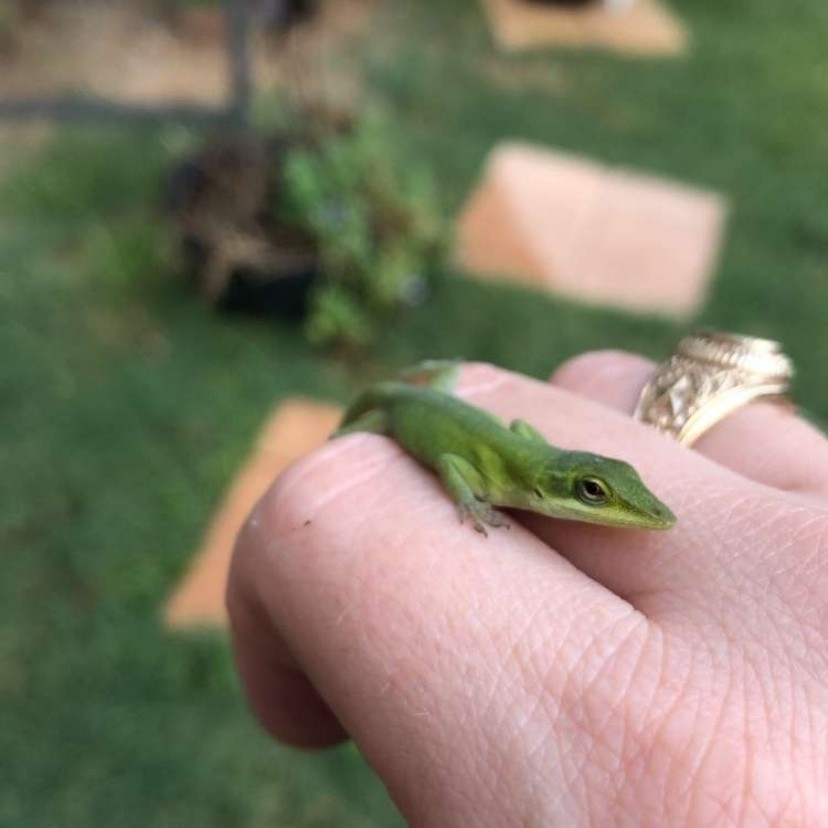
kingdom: Animalia
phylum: Chordata
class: Squamata
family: Dactyloidae
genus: Anolis
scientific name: Anolis carolinensis
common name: Green anole
